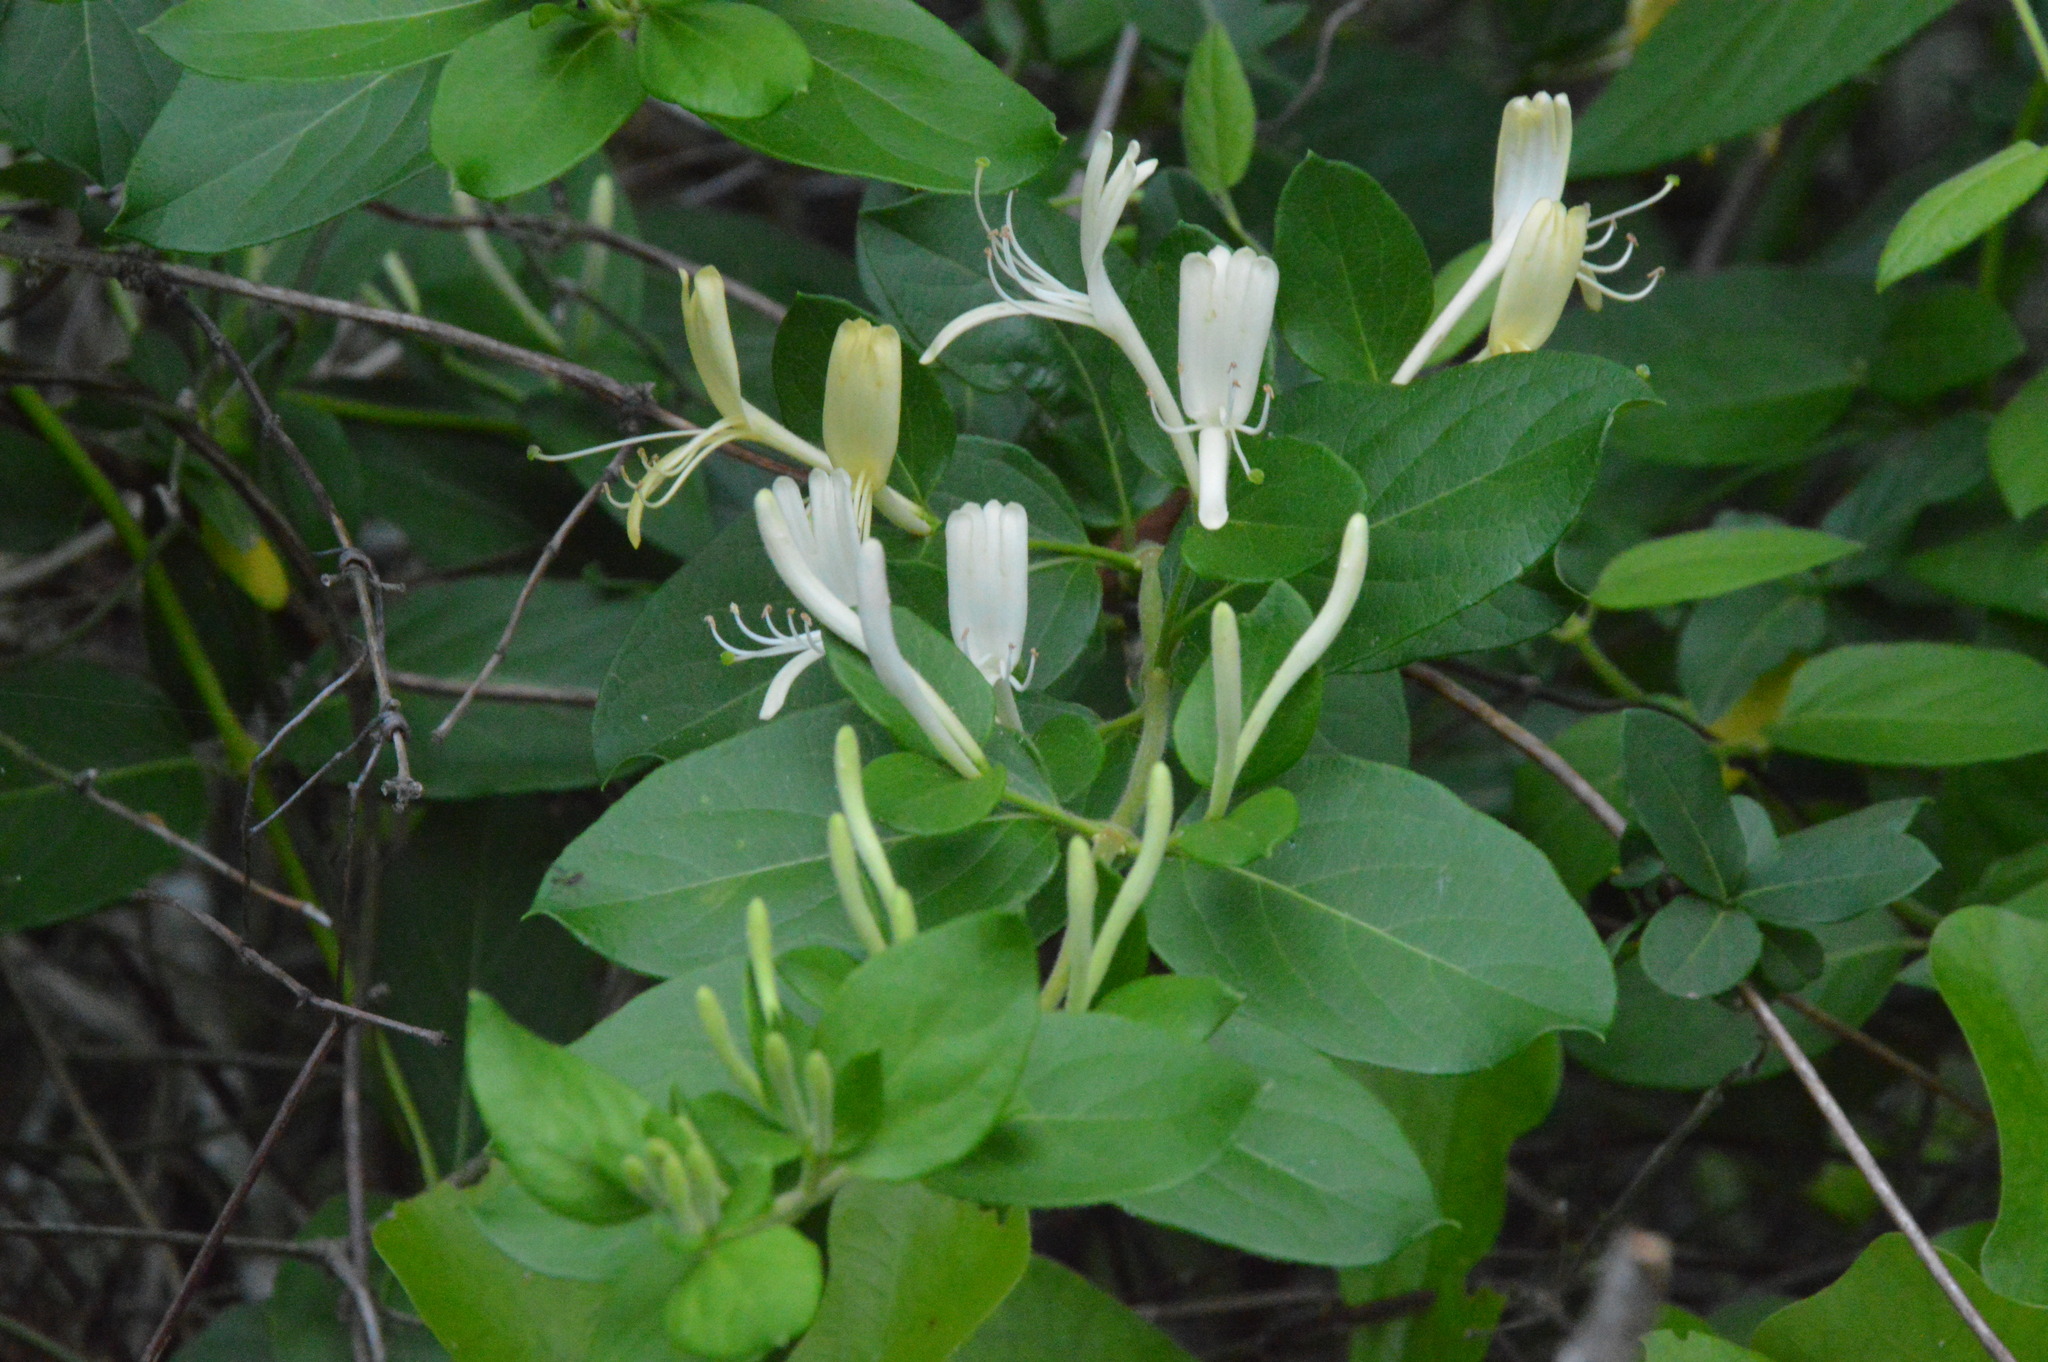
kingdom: Plantae
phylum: Tracheophyta
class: Magnoliopsida
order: Dipsacales
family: Caprifoliaceae
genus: Lonicera
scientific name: Lonicera japonica
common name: Japanese honeysuckle
